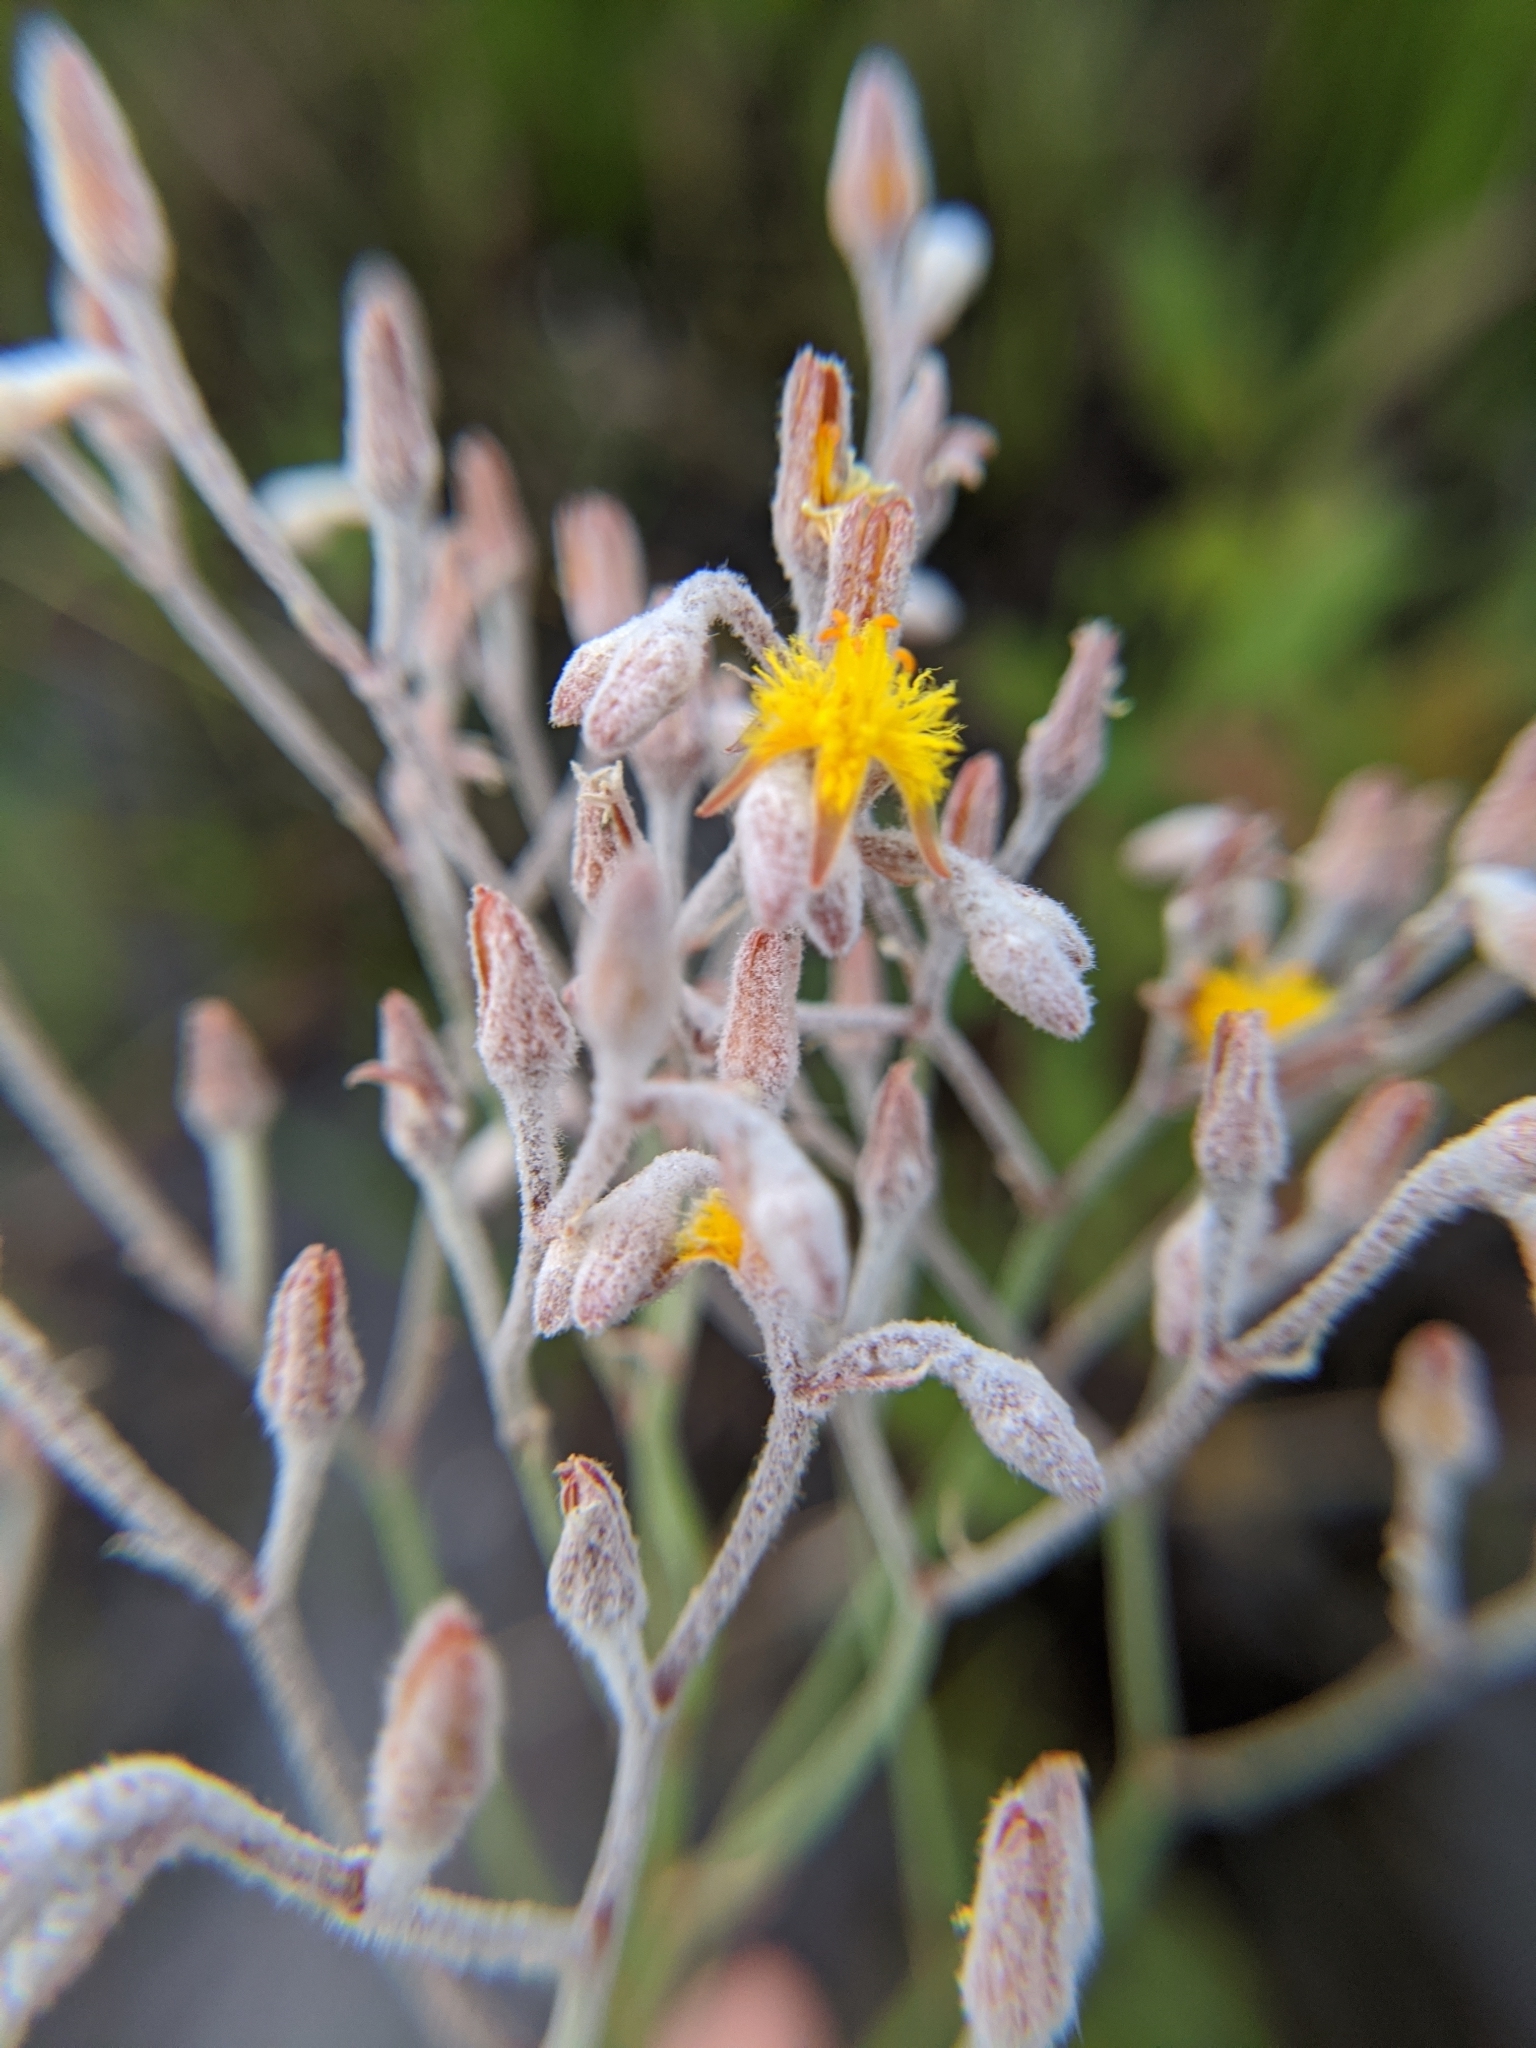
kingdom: Plantae
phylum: Tracheophyta
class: Liliopsida
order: Dioscoreales
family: Nartheciaceae
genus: Lophiola
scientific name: Lophiola aurea
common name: Golden-crest
